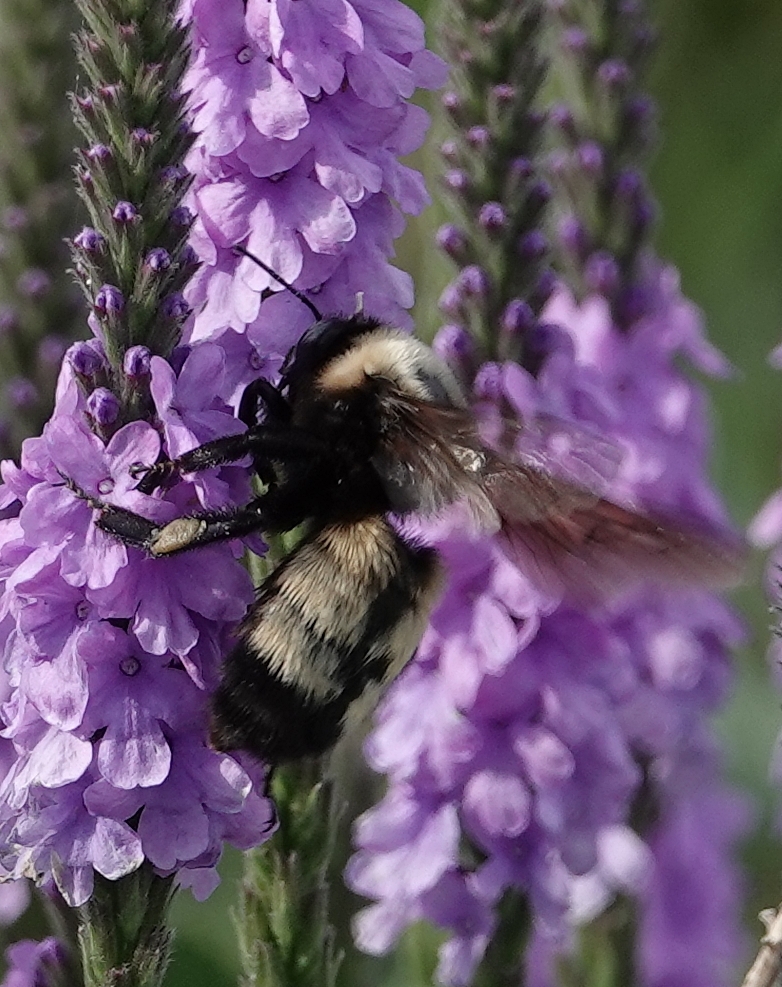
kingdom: Animalia
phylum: Arthropoda
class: Insecta
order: Hymenoptera
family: Apidae
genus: Bombus
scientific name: Bombus nevadensis
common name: Nevada bumble bee
